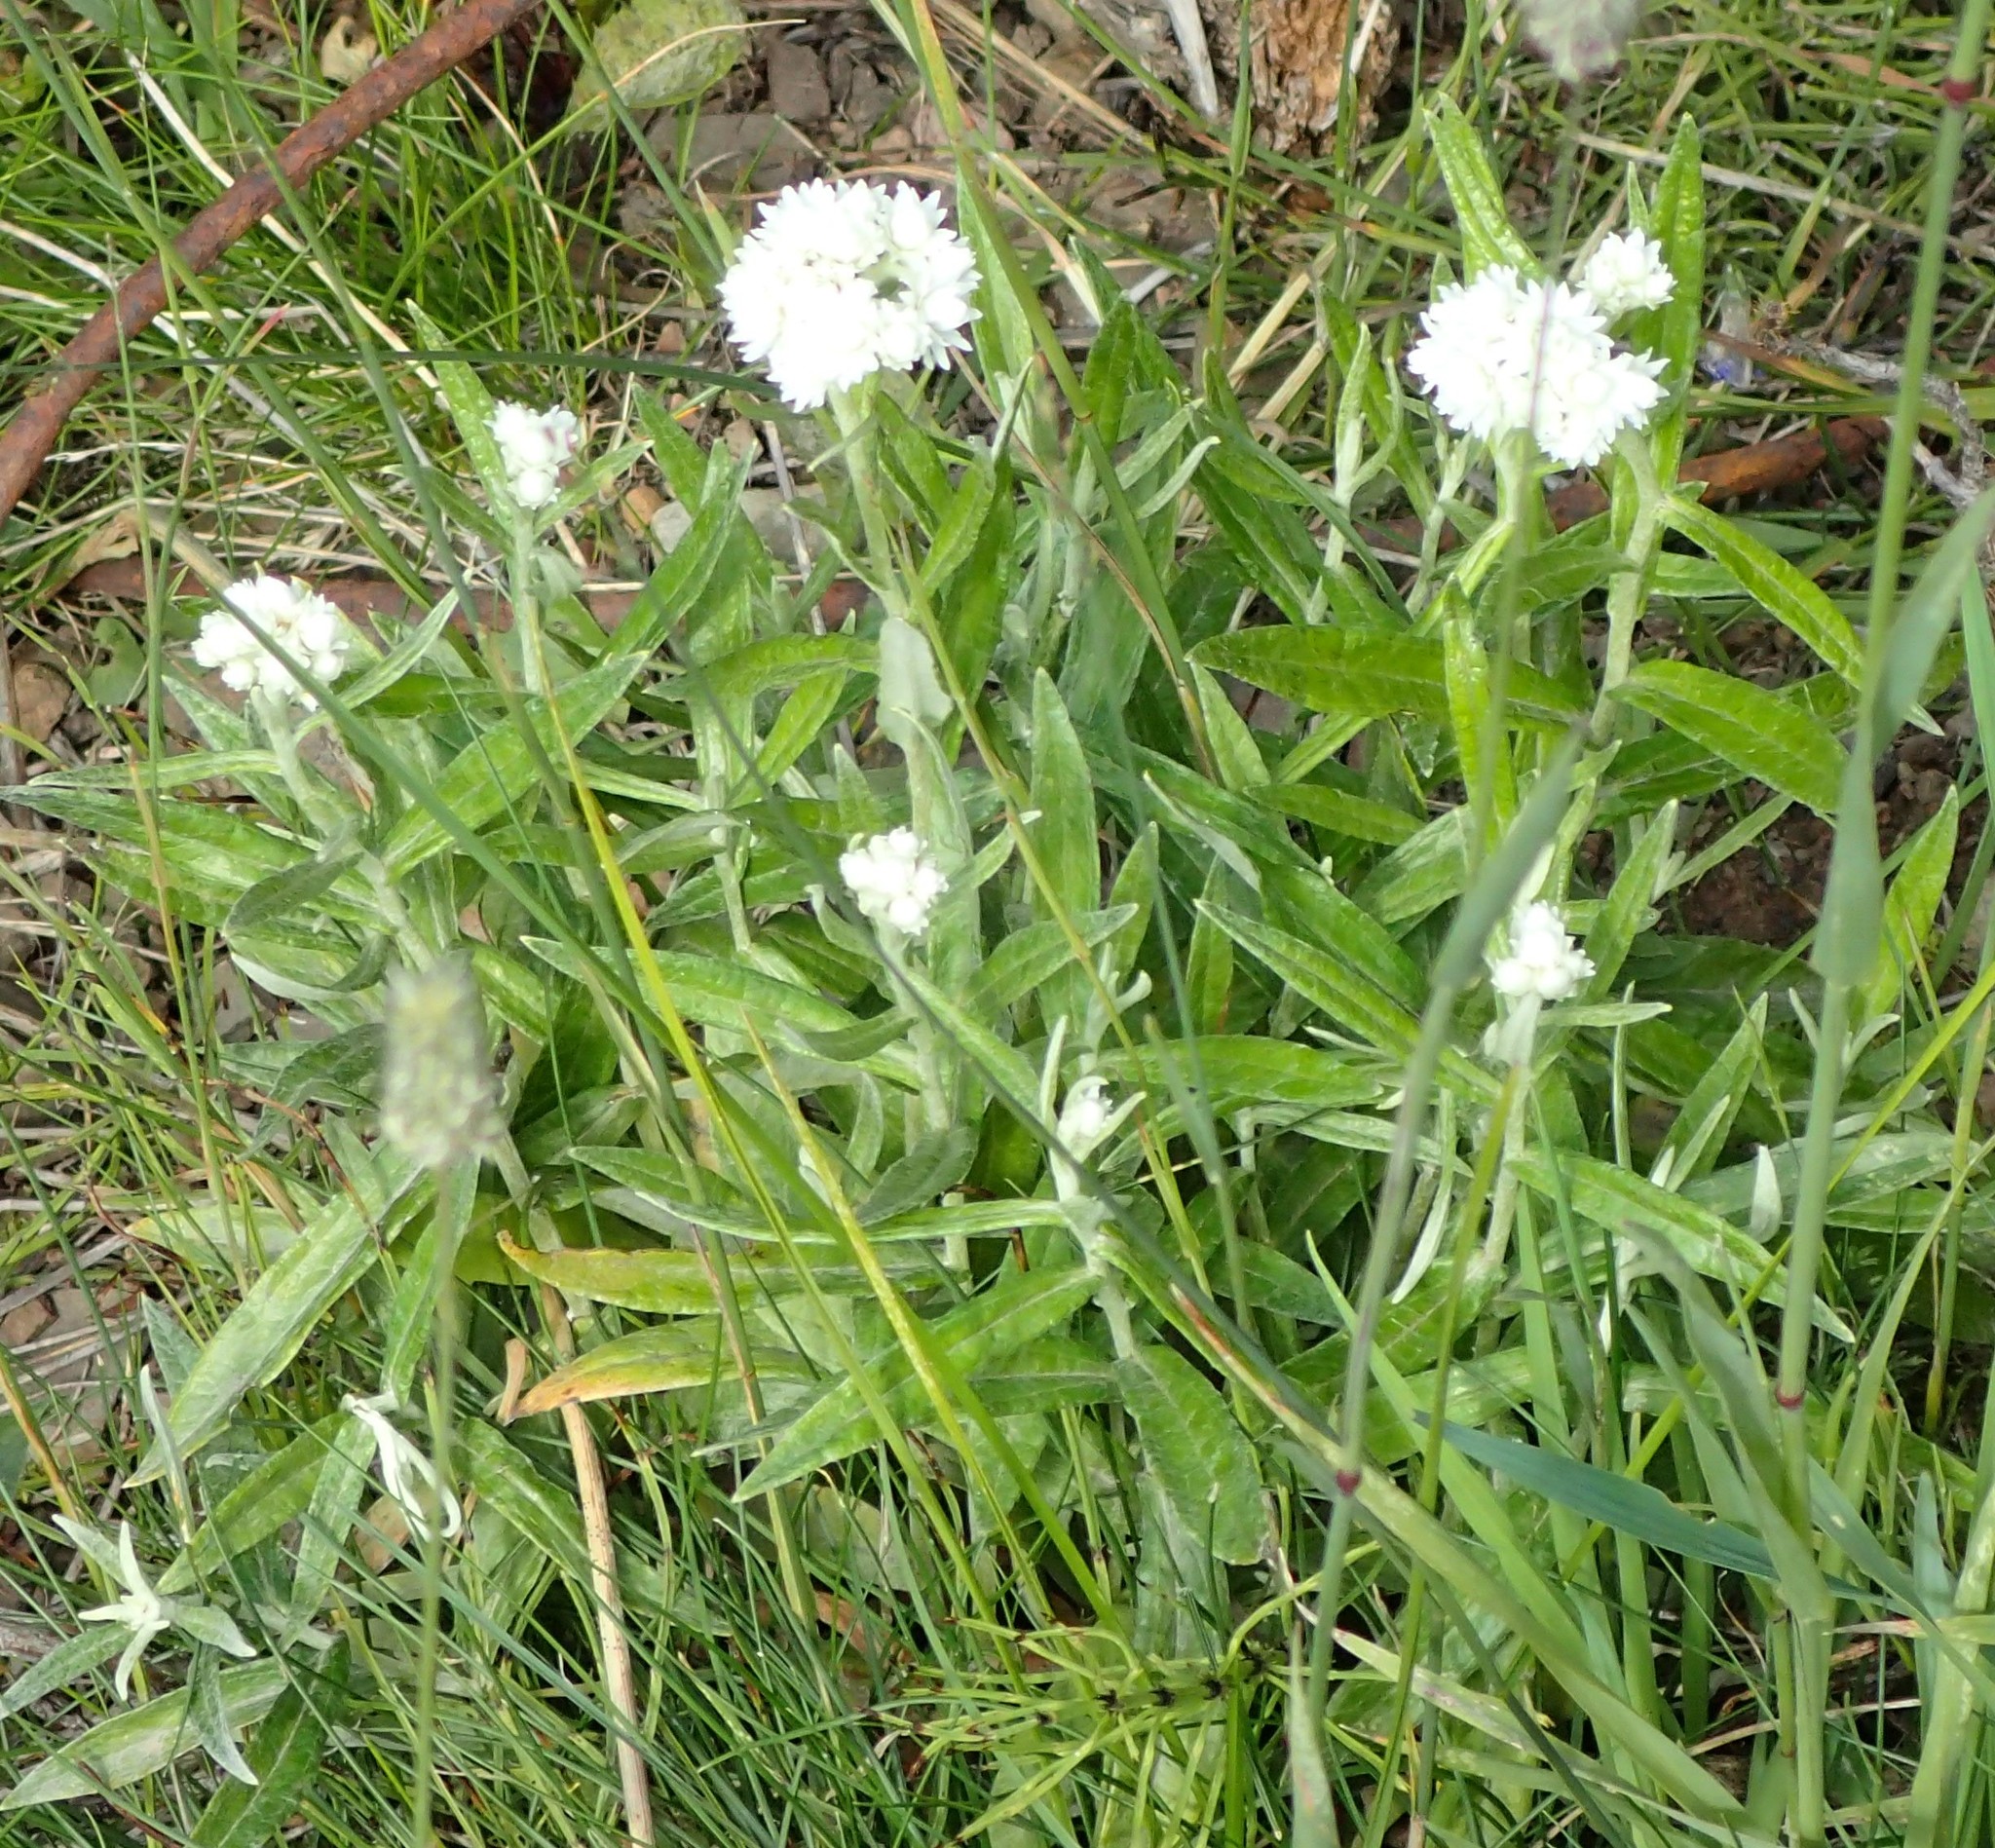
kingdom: Plantae
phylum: Tracheophyta
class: Magnoliopsida
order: Asterales
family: Asteraceae
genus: Anaphalis
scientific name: Anaphalis margaritacea
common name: Pearly everlasting
